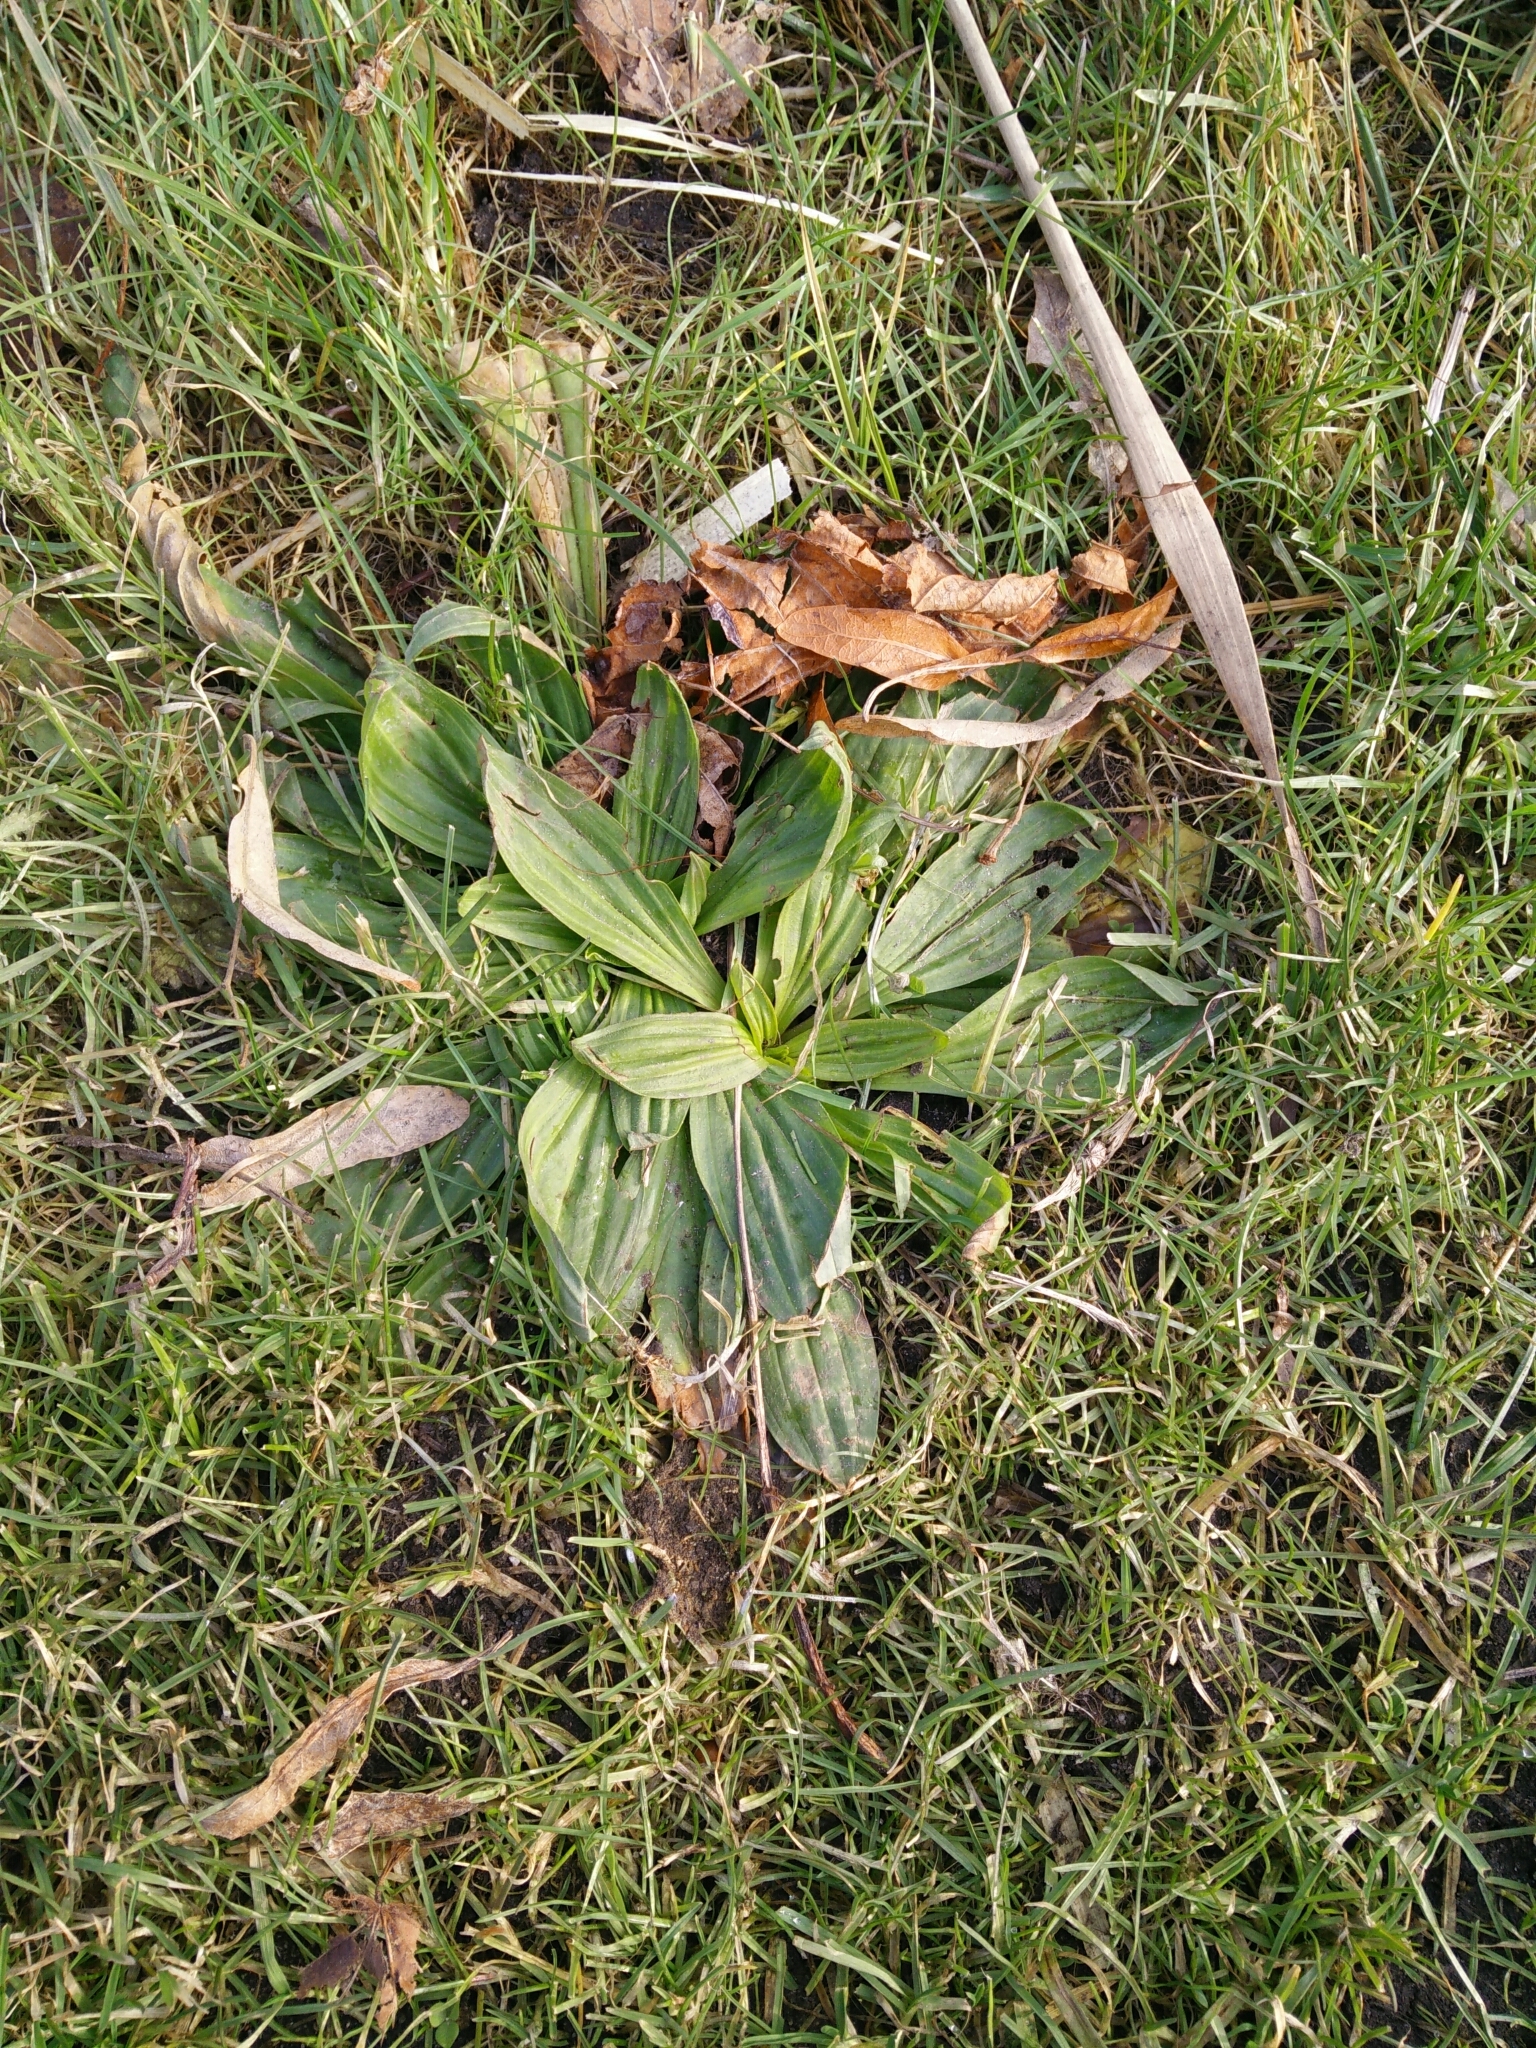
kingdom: Plantae
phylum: Tracheophyta
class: Magnoliopsida
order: Lamiales
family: Plantaginaceae
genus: Plantago
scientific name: Plantago lanceolata
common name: Ribwort plantain
